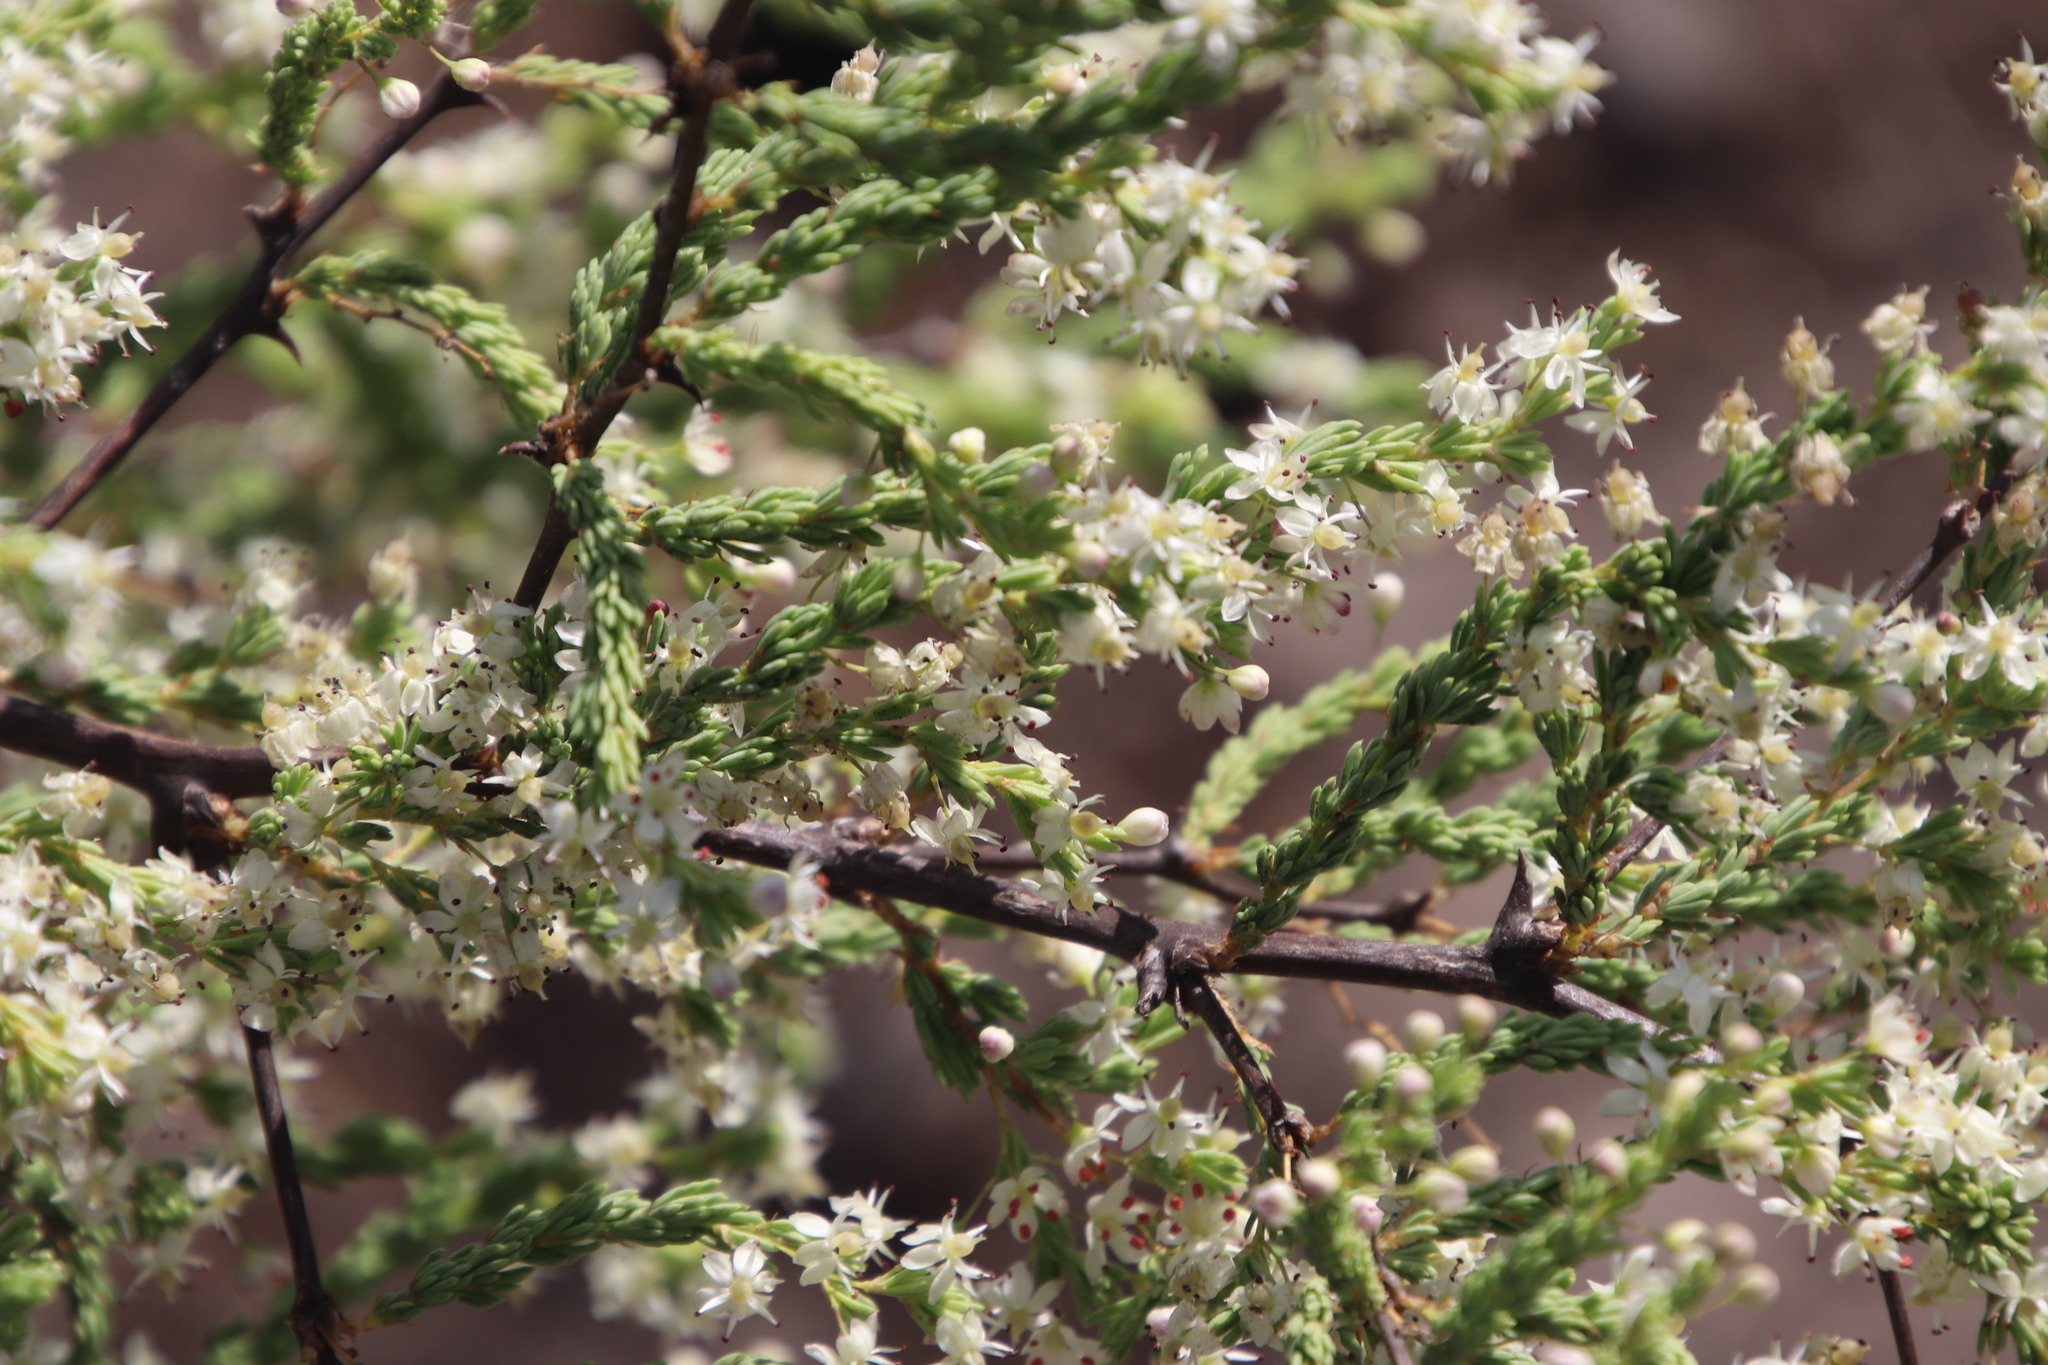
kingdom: Plantae
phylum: Tracheophyta
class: Liliopsida
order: Asparagales
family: Asparagaceae
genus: Asparagus
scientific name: Asparagus rubicundus
